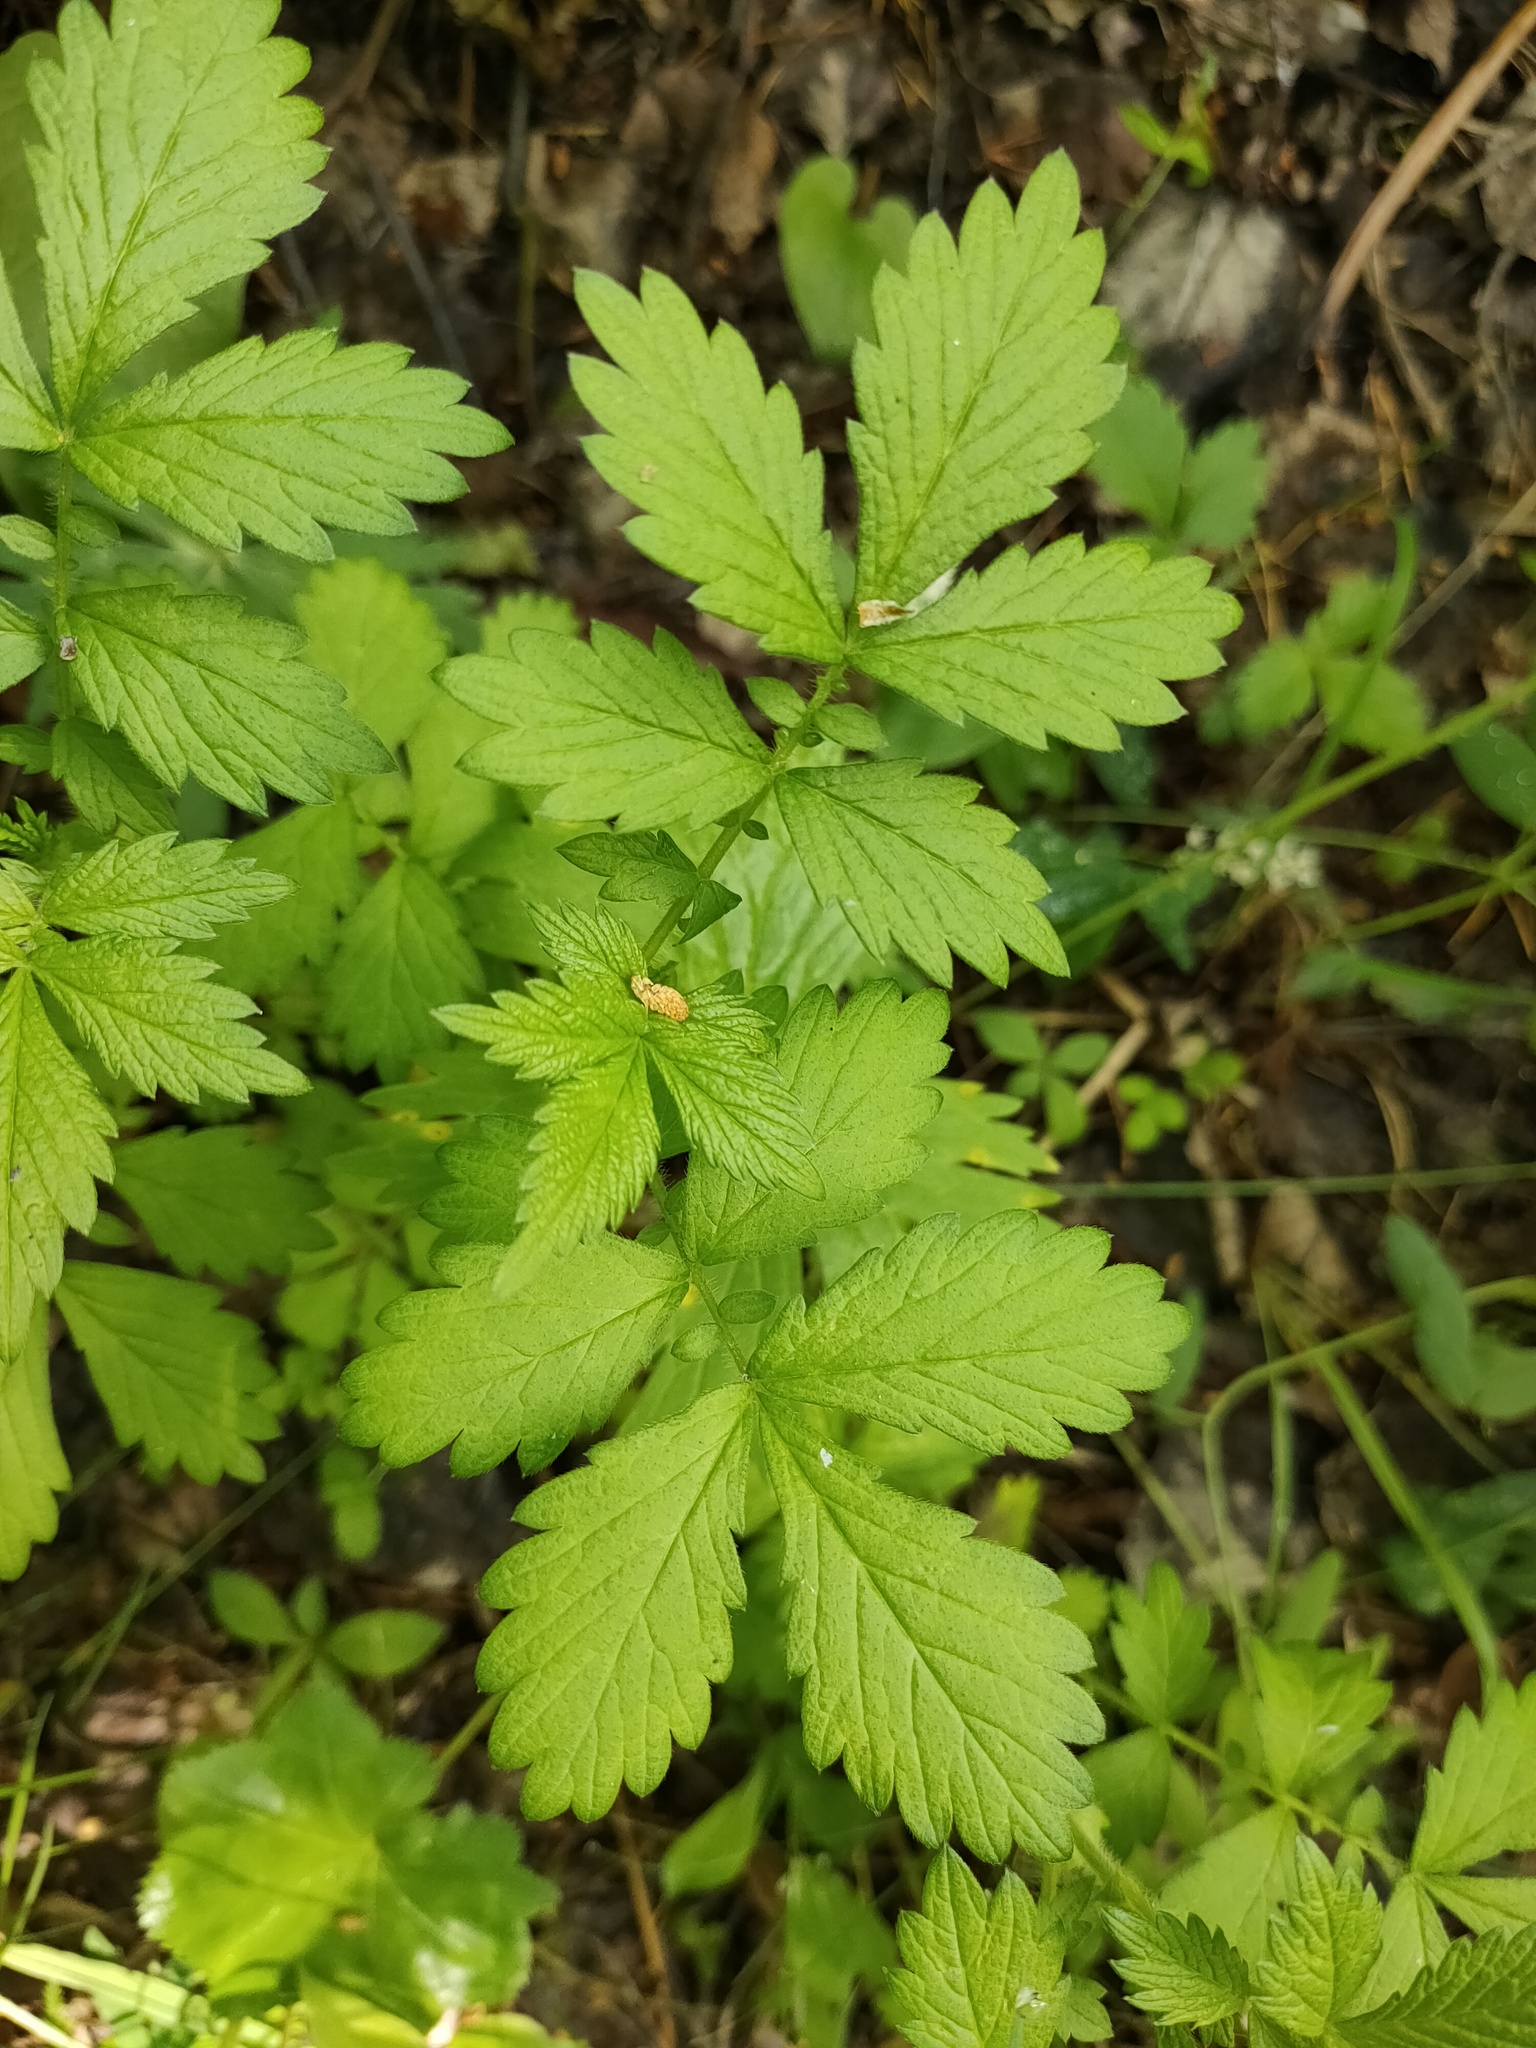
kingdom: Plantae
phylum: Tracheophyta
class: Magnoliopsida
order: Rosales
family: Rosaceae
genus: Agrimonia
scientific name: Agrimonia pilosa
